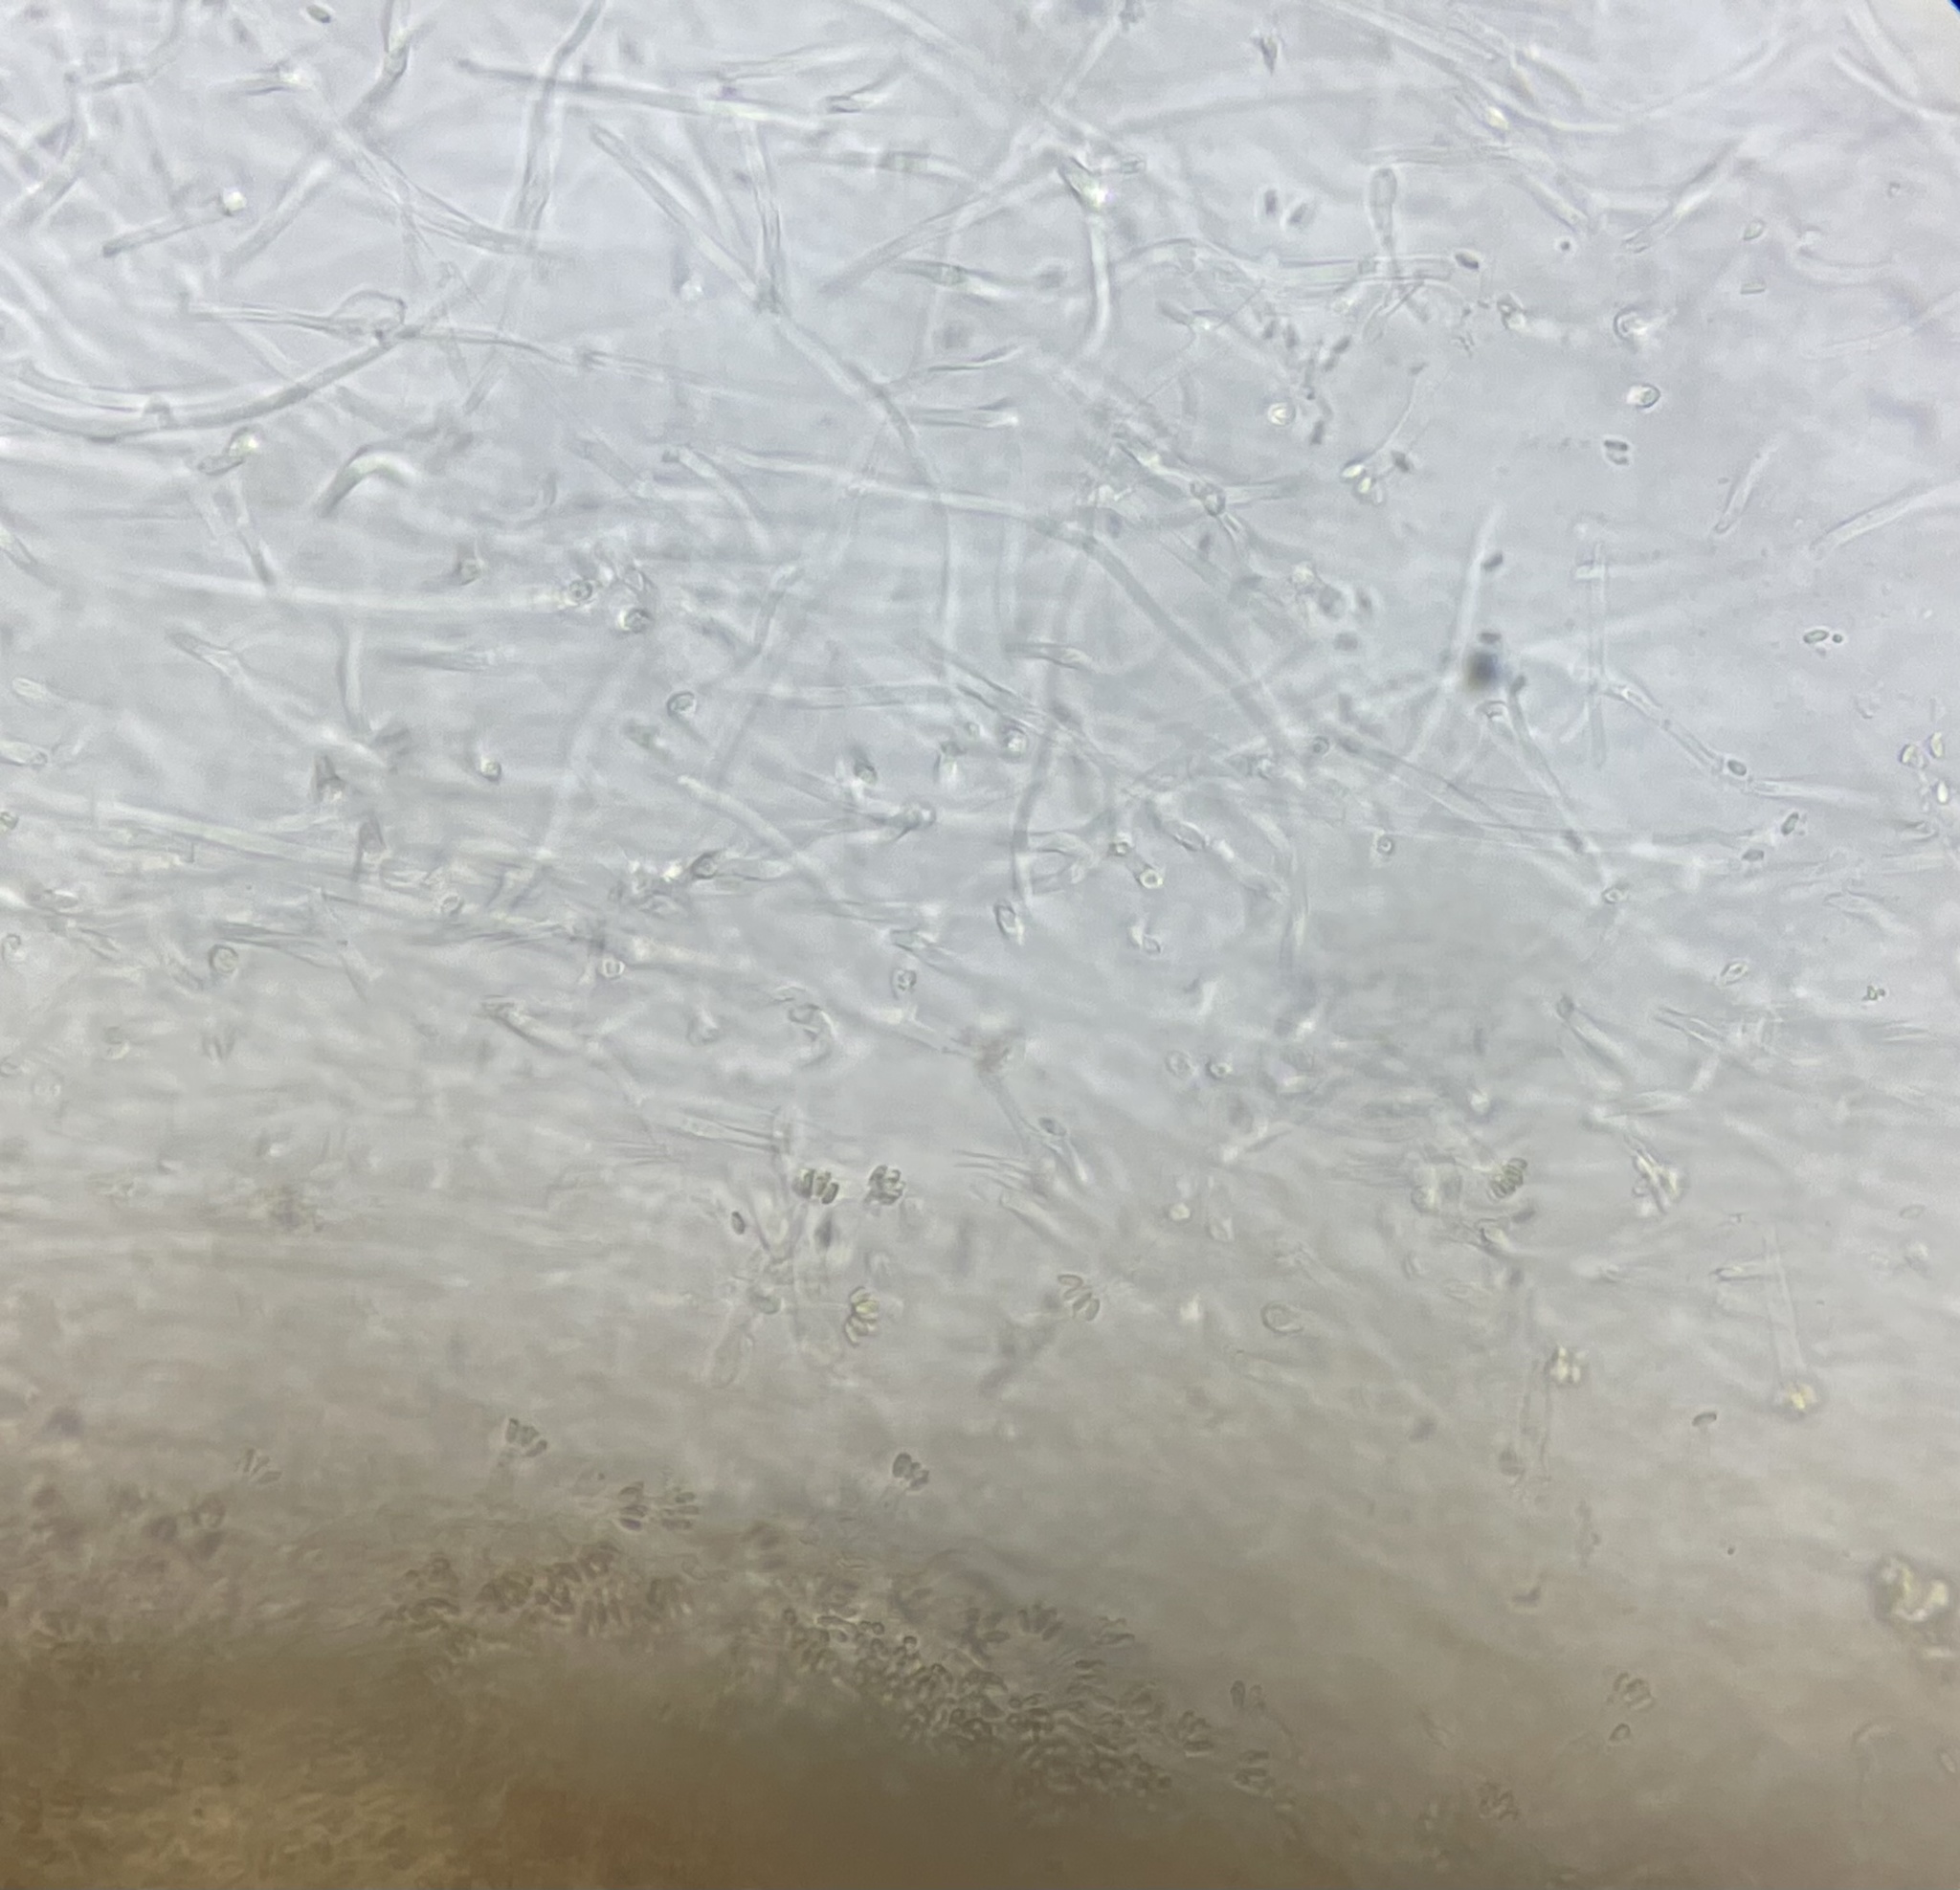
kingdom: Fungi
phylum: Basidiomycota
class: Agaricomycetes
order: Phallales
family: Phallaceae
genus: Lysurus
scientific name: Lysurus mokusin
